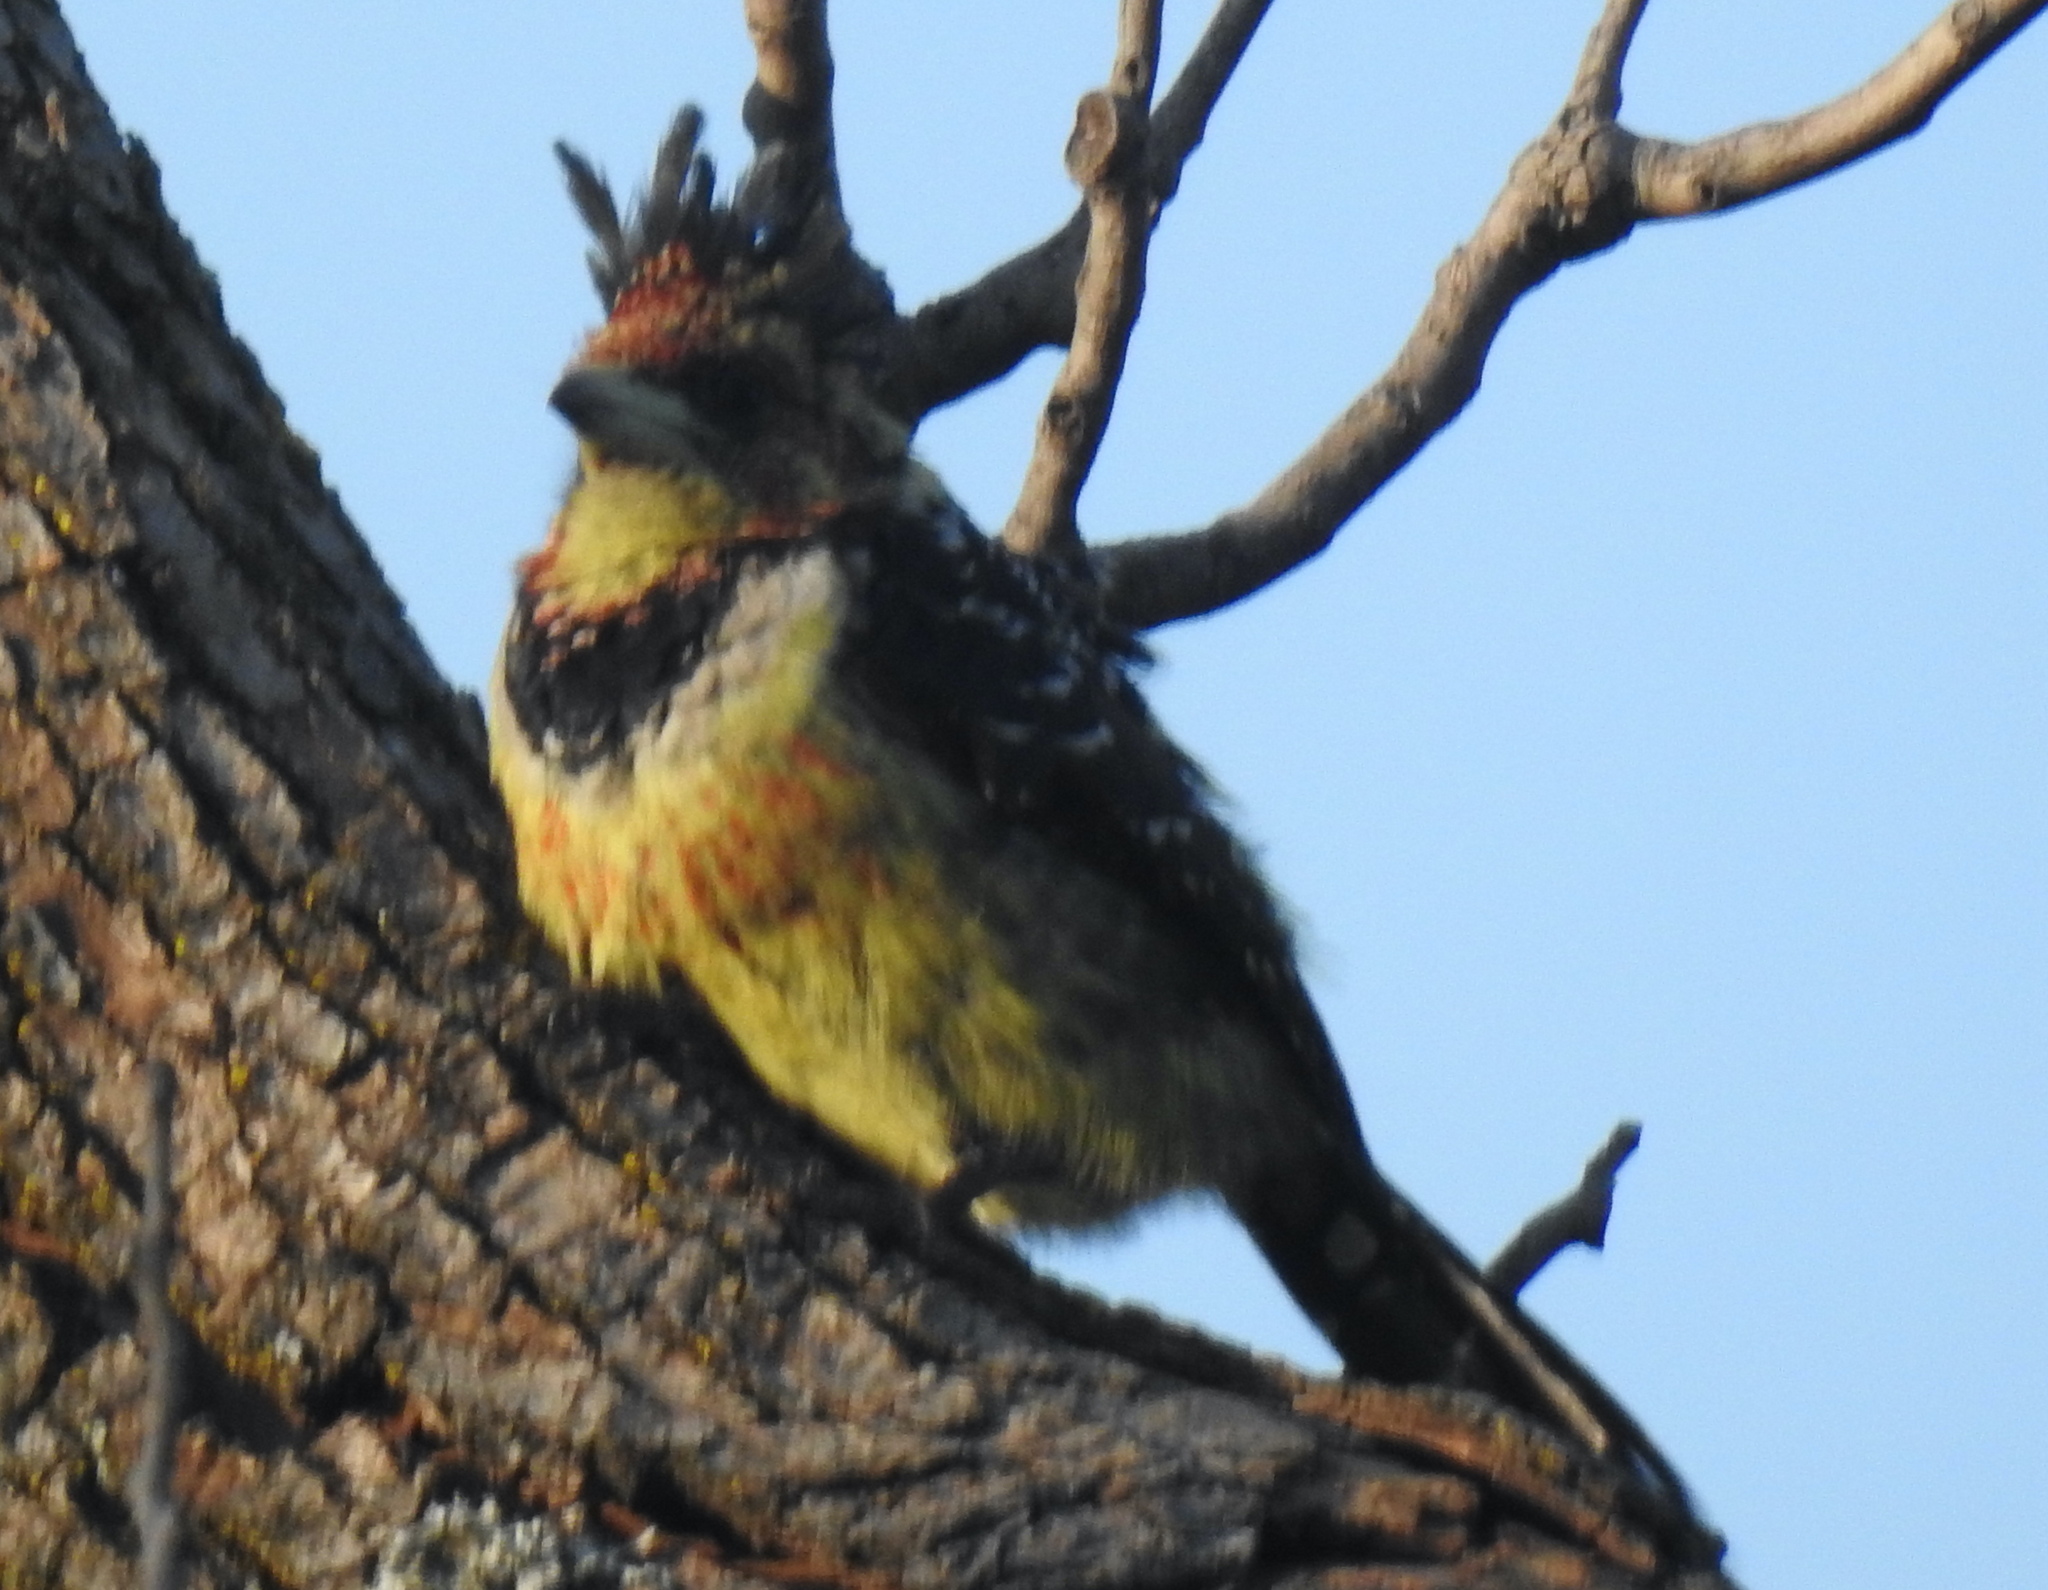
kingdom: Animalia
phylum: Chordata
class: Aves
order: Piciformes
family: Lybiidae
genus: Trachyphonus
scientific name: Trachyphonus vaillantii
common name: Crested barbet
